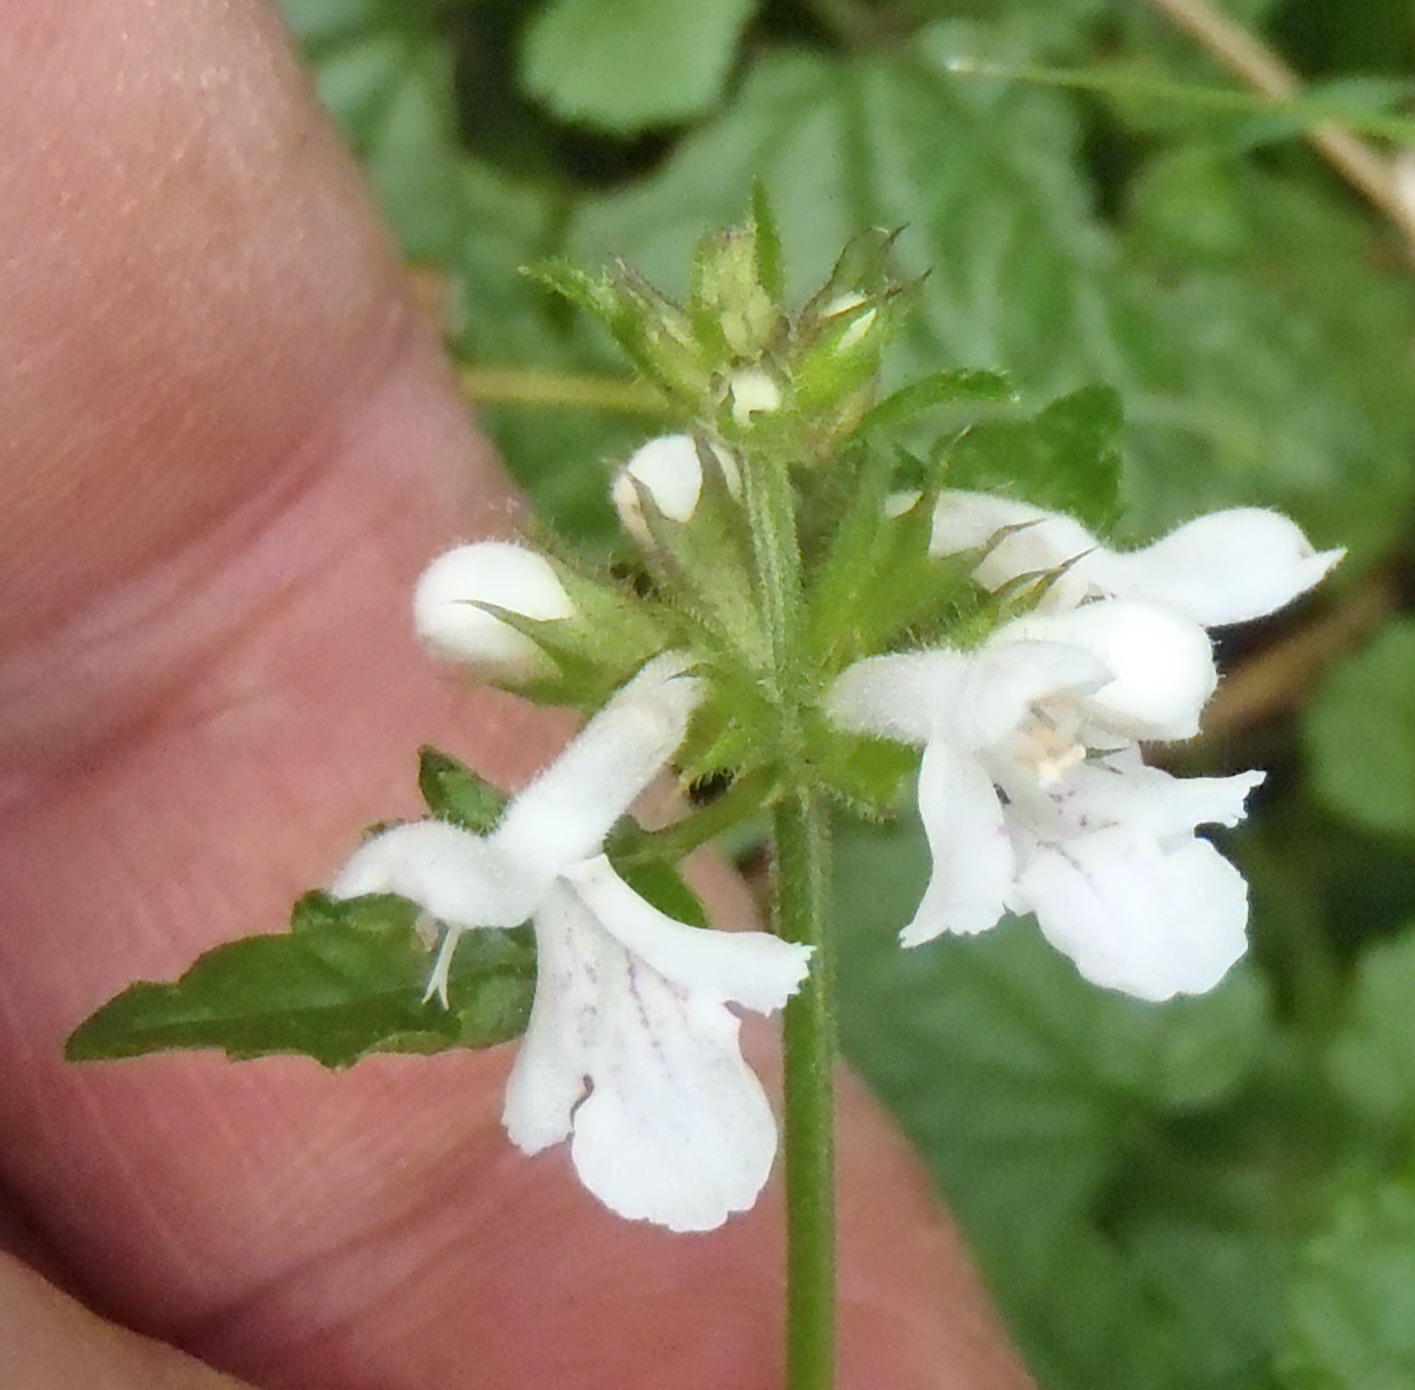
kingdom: Plantae
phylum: Tracheophyta
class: Magnoliopsida
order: Lamiales
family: Lamiaceae
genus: Stachys
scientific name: Stachys aethiopica
